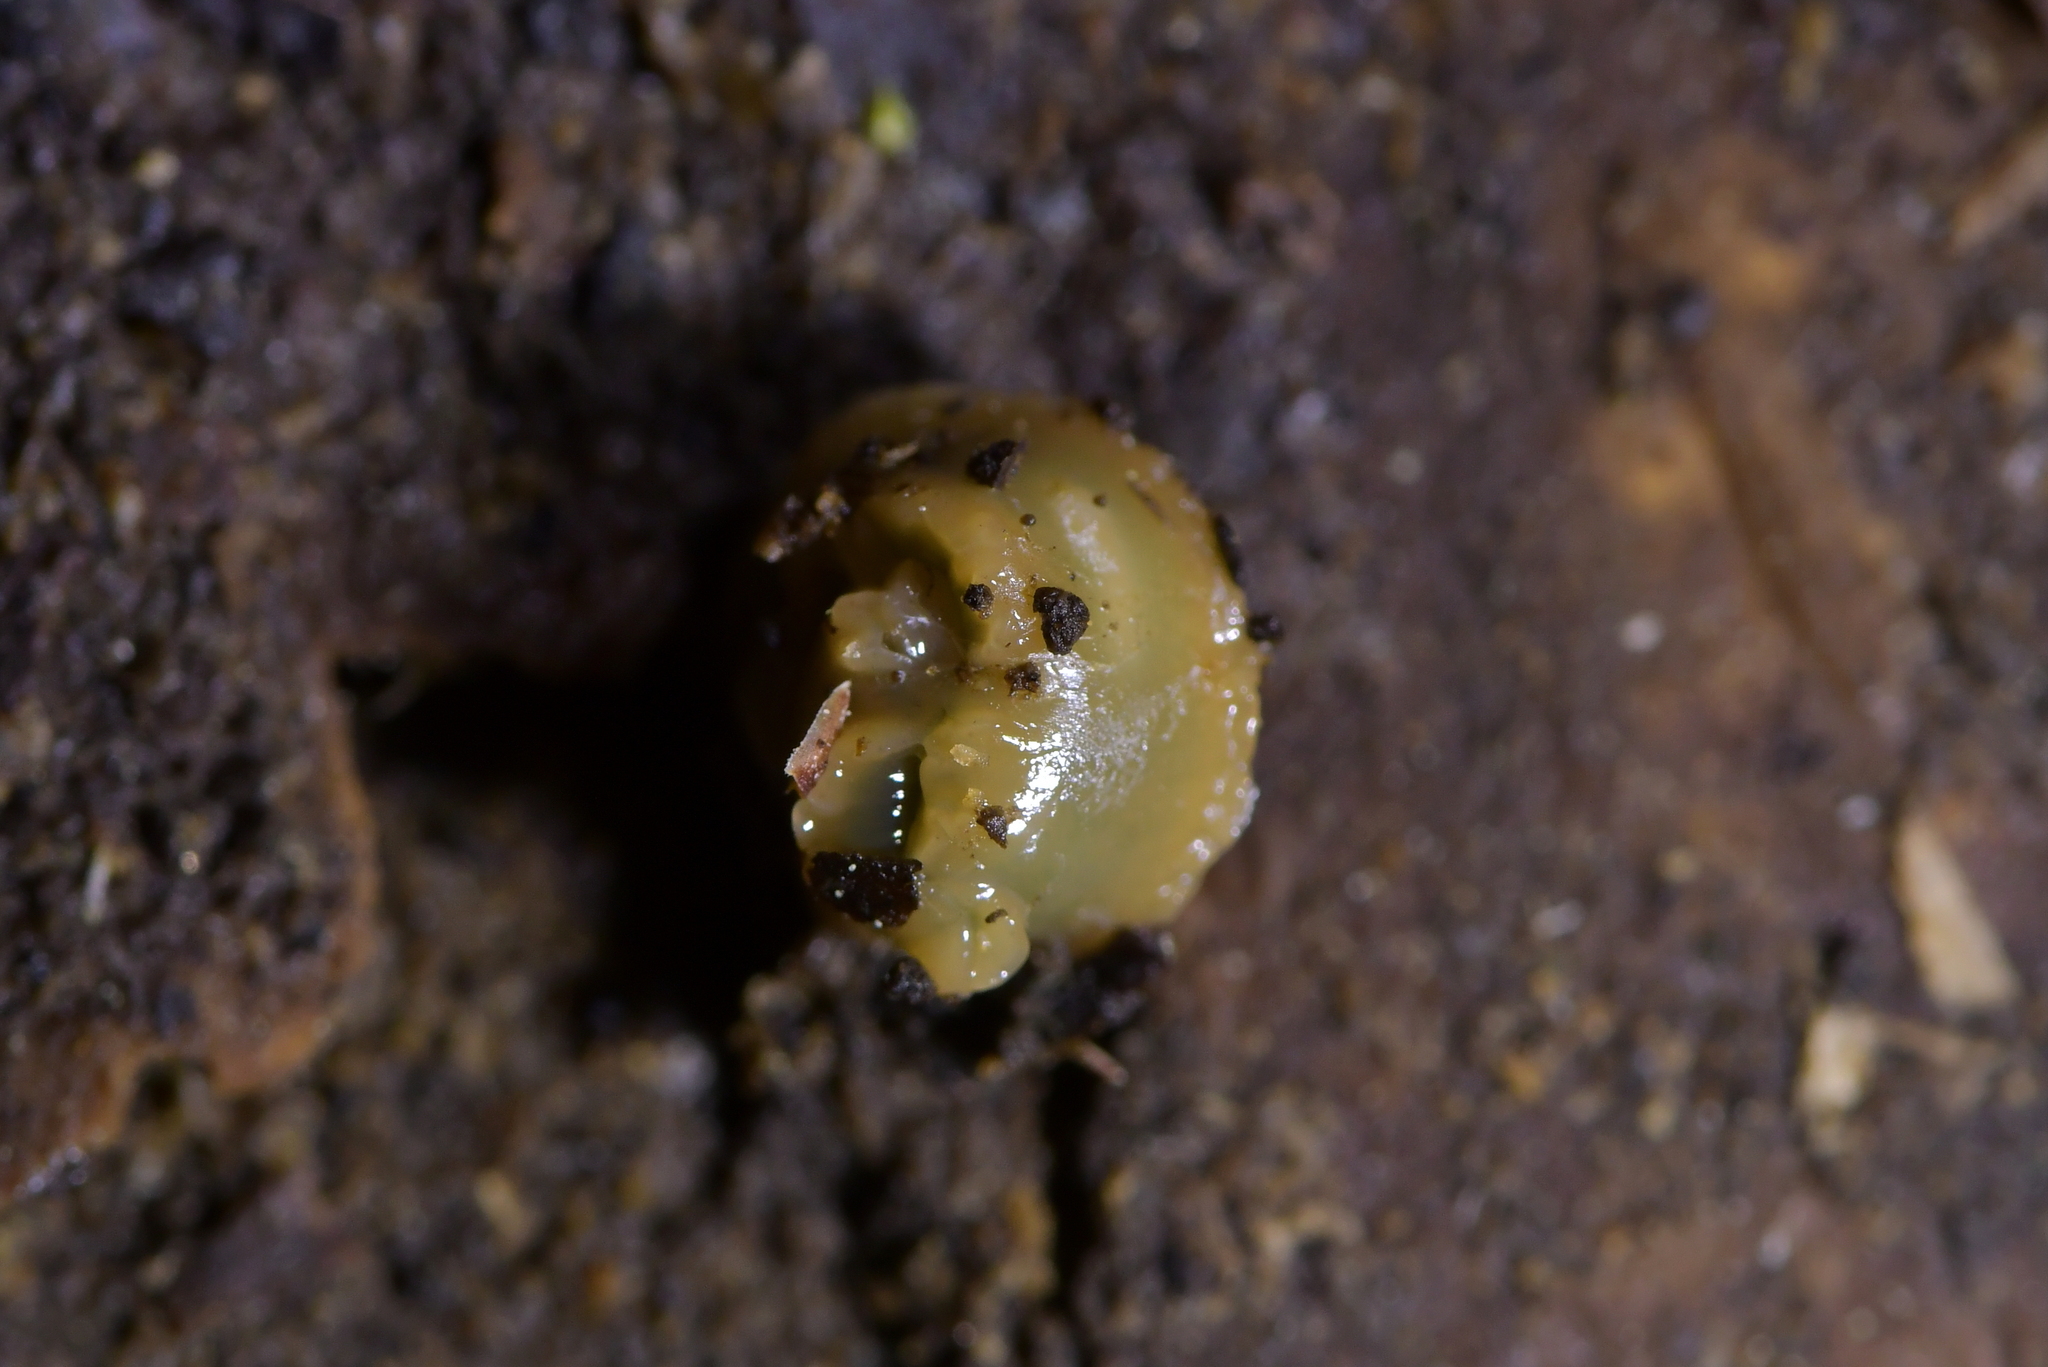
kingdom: Animalia
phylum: Platyhelminthes
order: Tricladida
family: Geoplanidae
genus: Arthurdendyus
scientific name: Arthurdendyus australis
